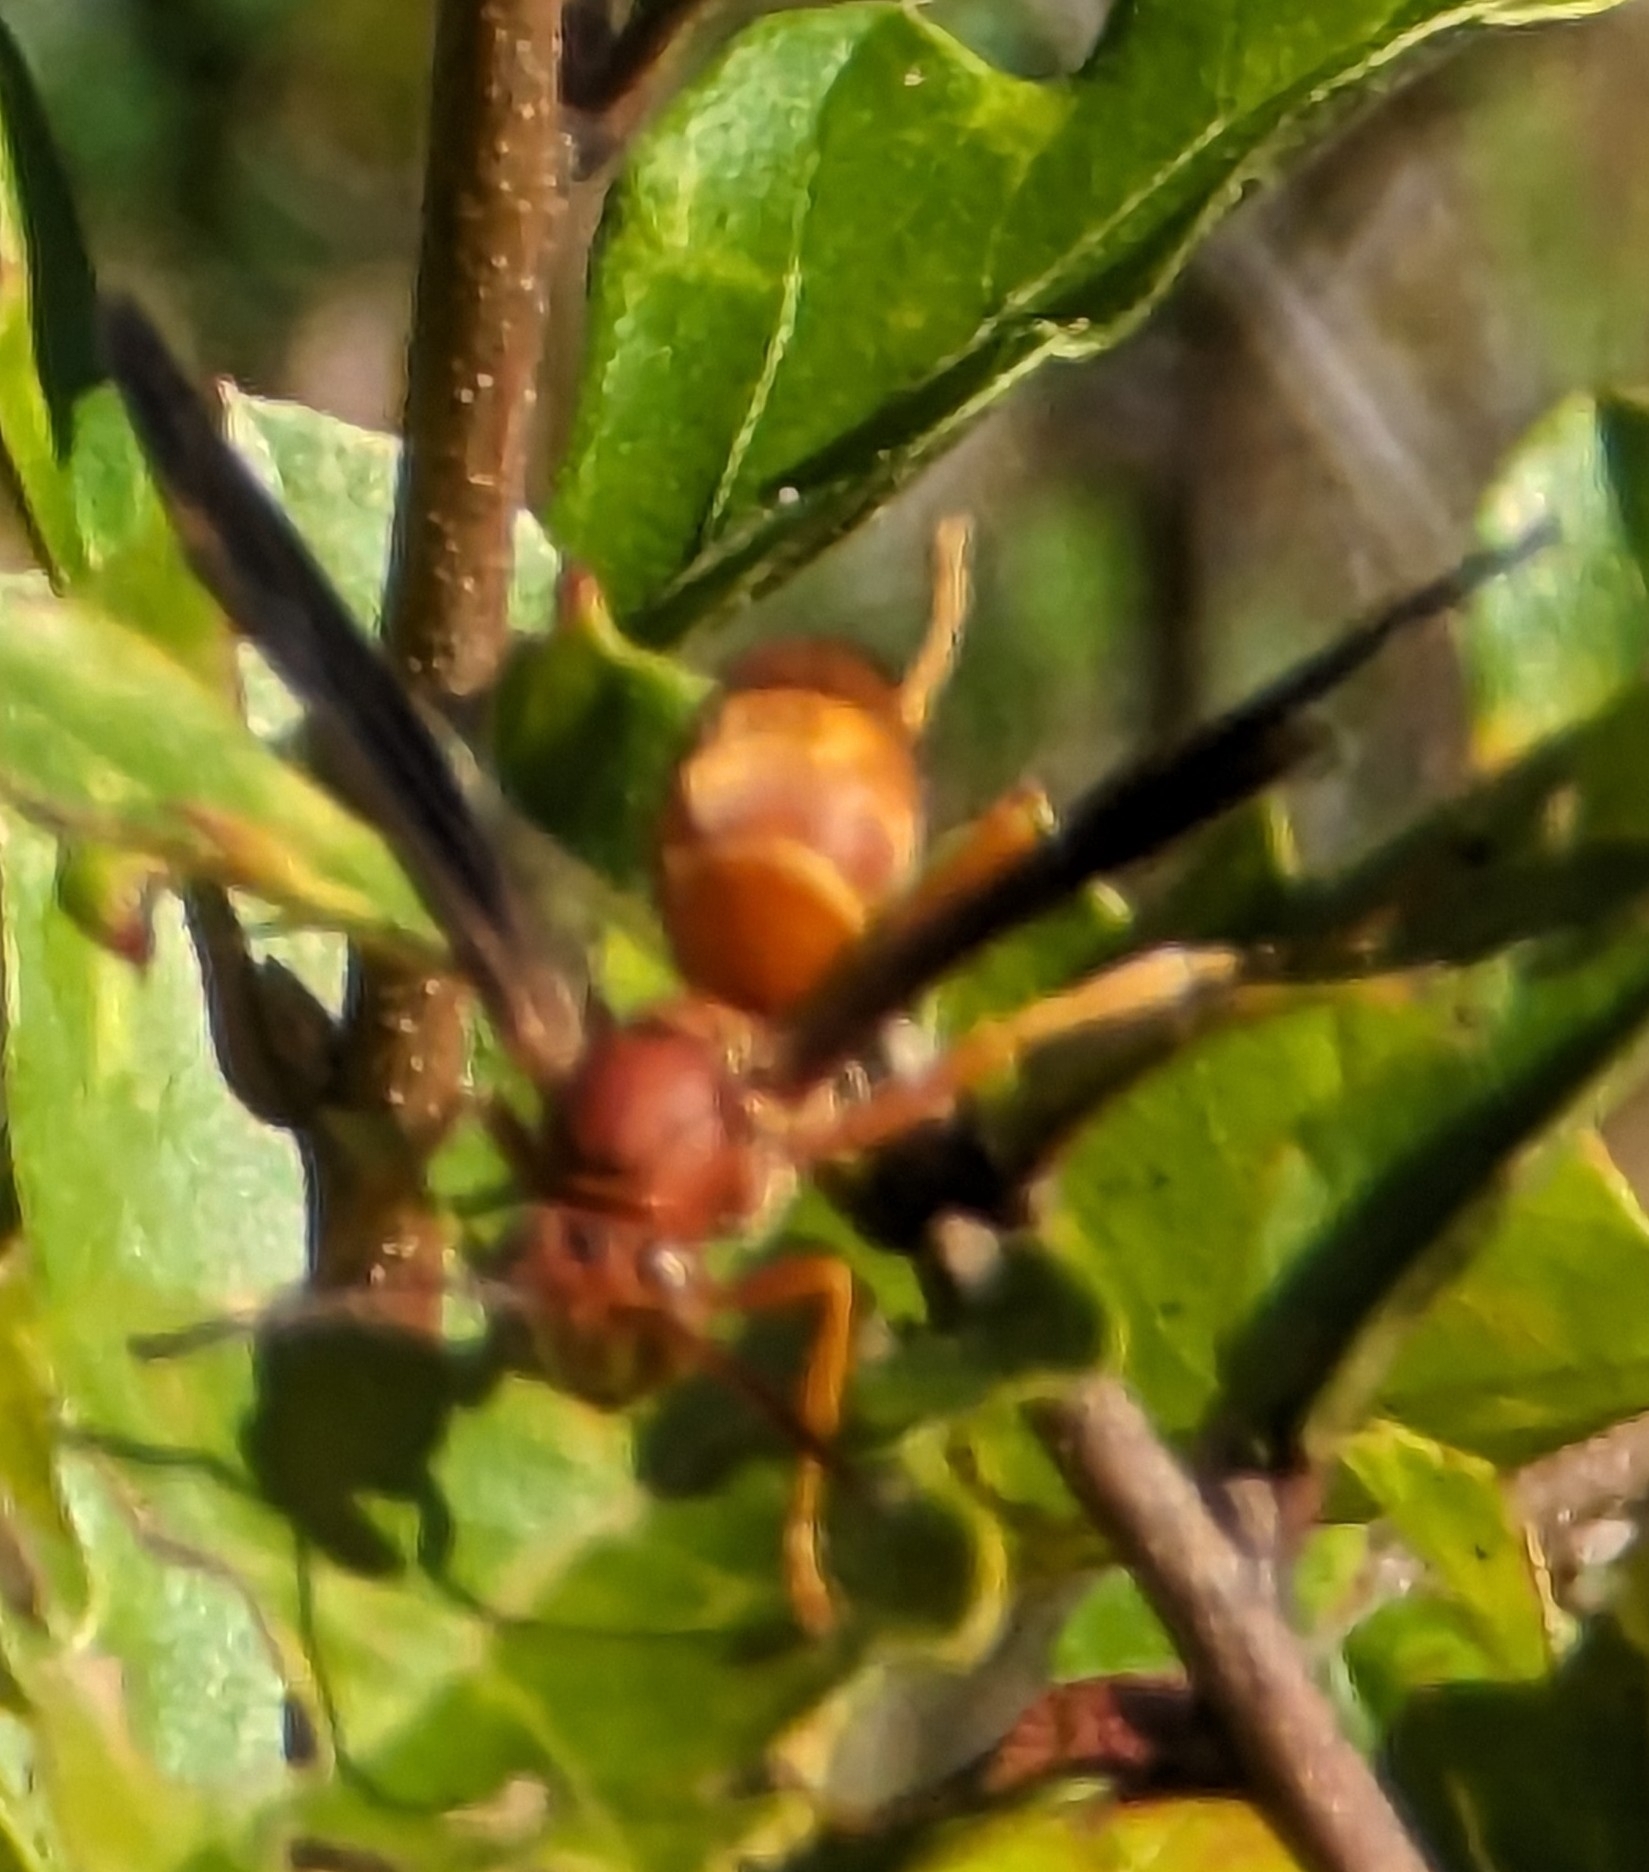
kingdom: Animalia
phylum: Arthropoda
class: Insecta
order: Hymenoptera
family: Eumenidae
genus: Polistes
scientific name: Polistes carolina
